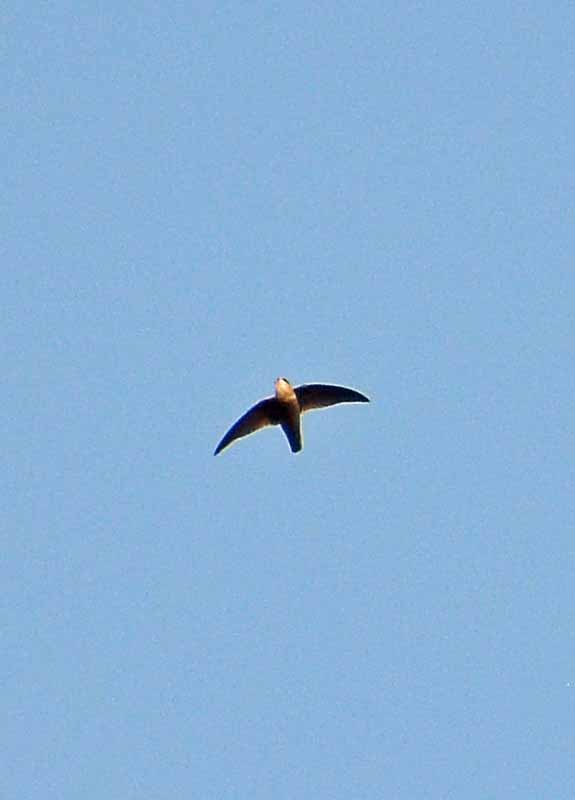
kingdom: Animalia
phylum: Chordata
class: Aves
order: Apodiformes
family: Apodidae
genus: Chaetura
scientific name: Chaetura vauxi
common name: Vaux's swift
